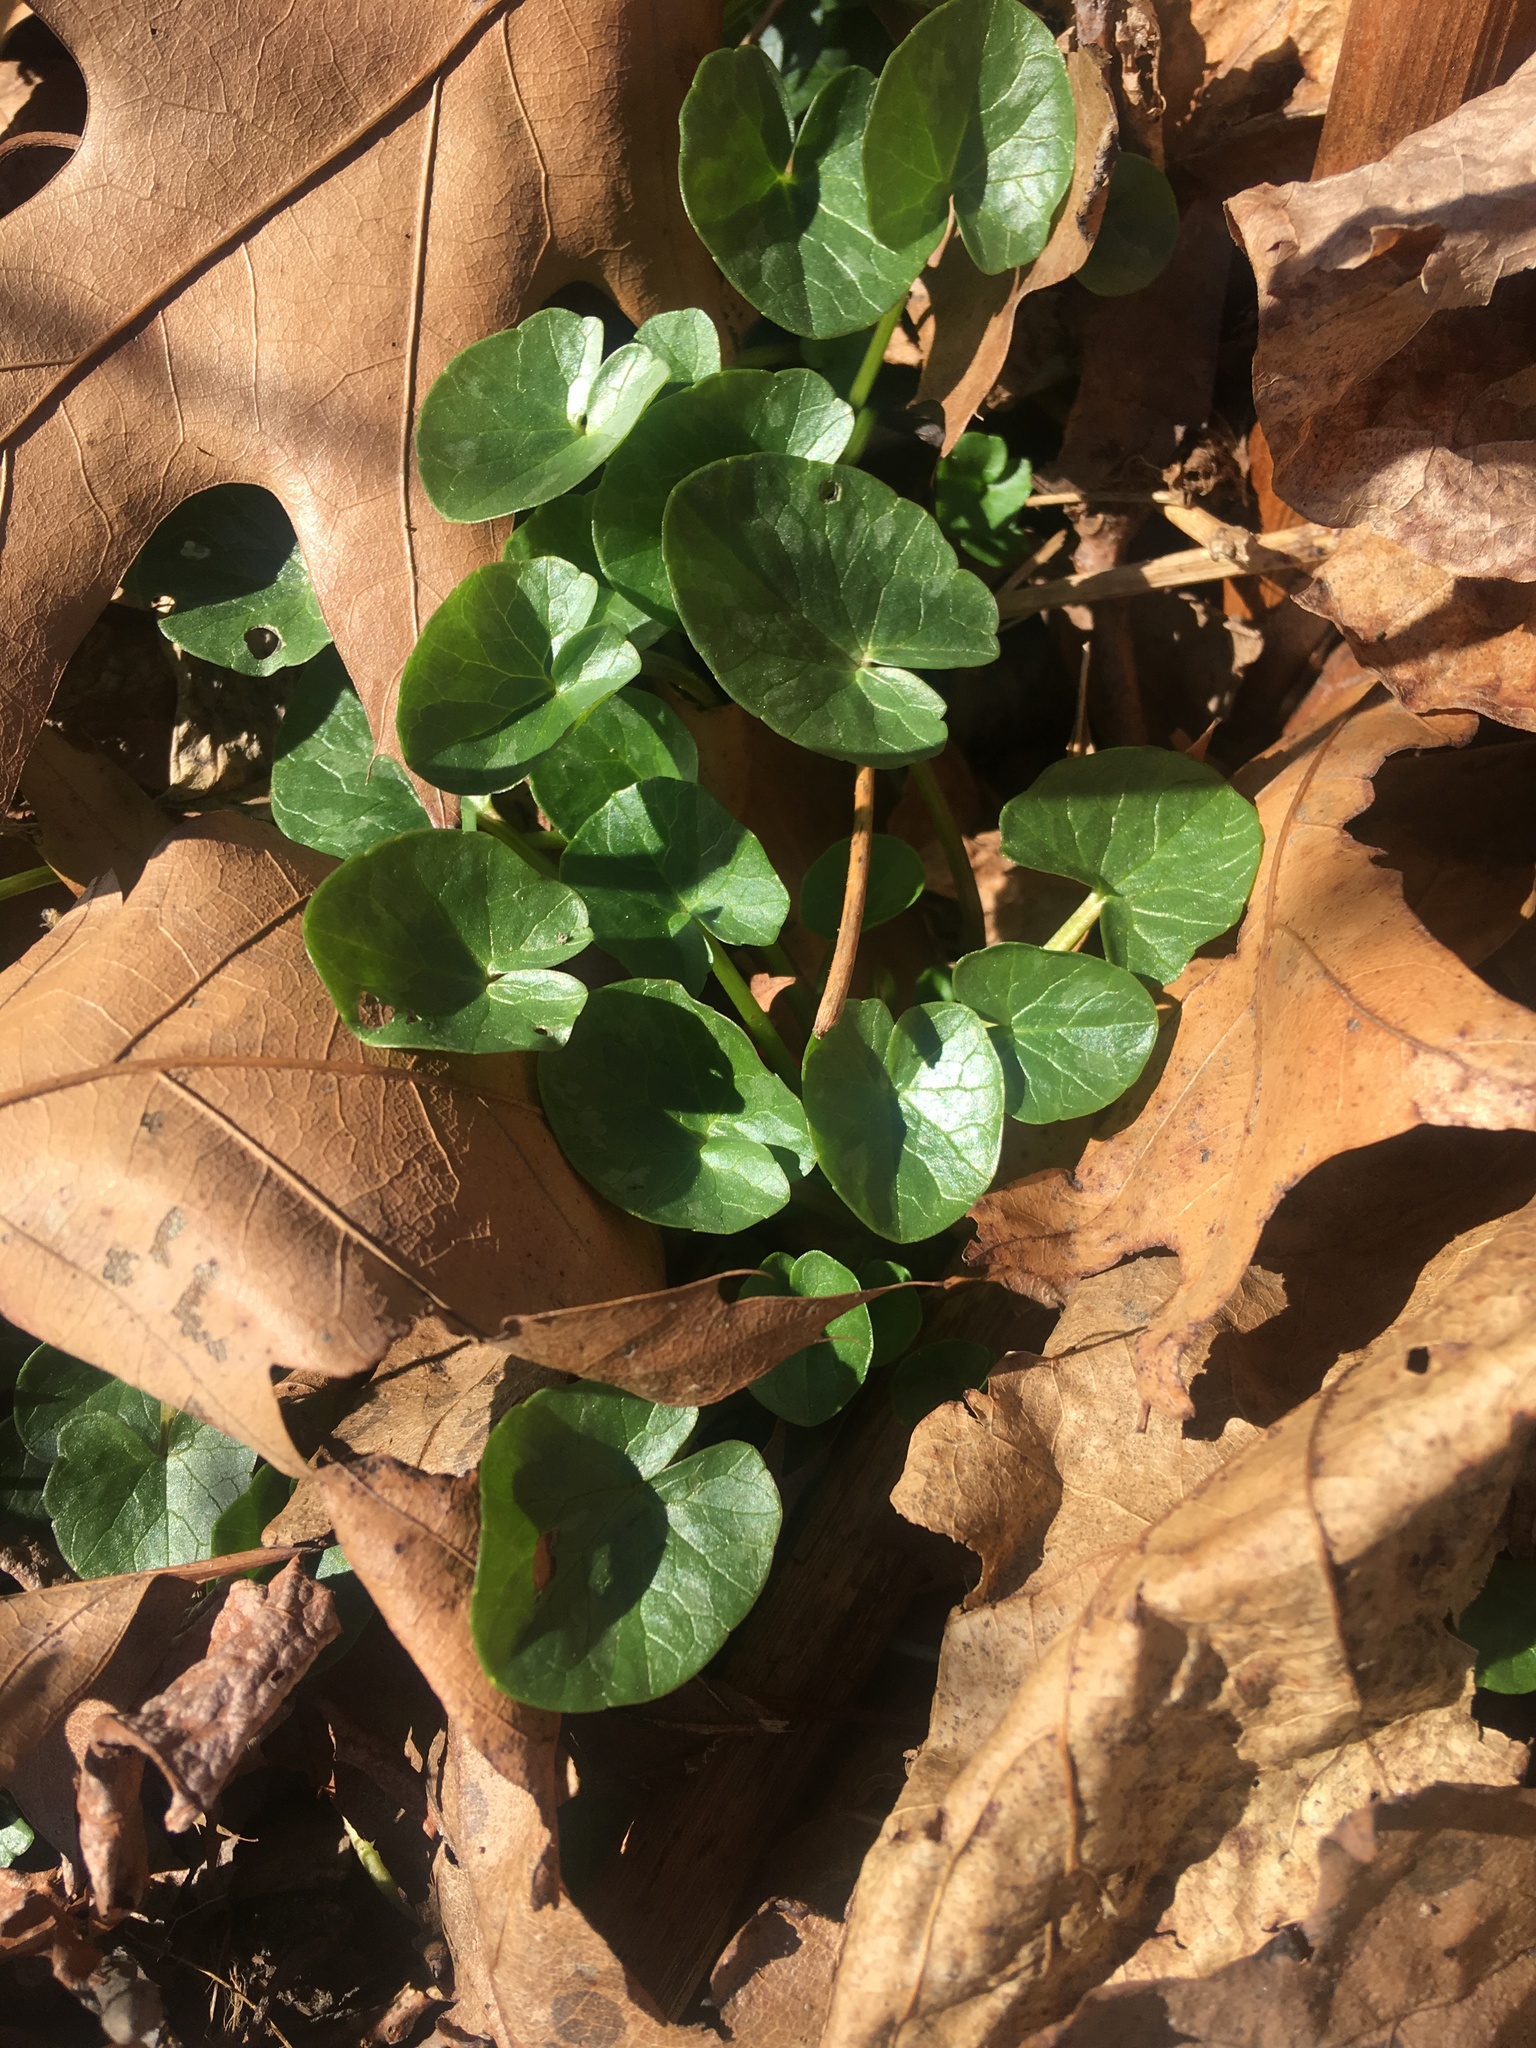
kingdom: Plantae
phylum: Tracheophyta
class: Magnoliopsida
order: Ranunculales
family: Ranunculaceae
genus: Ficaria
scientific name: Ficaria verna
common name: Lesser celandine
